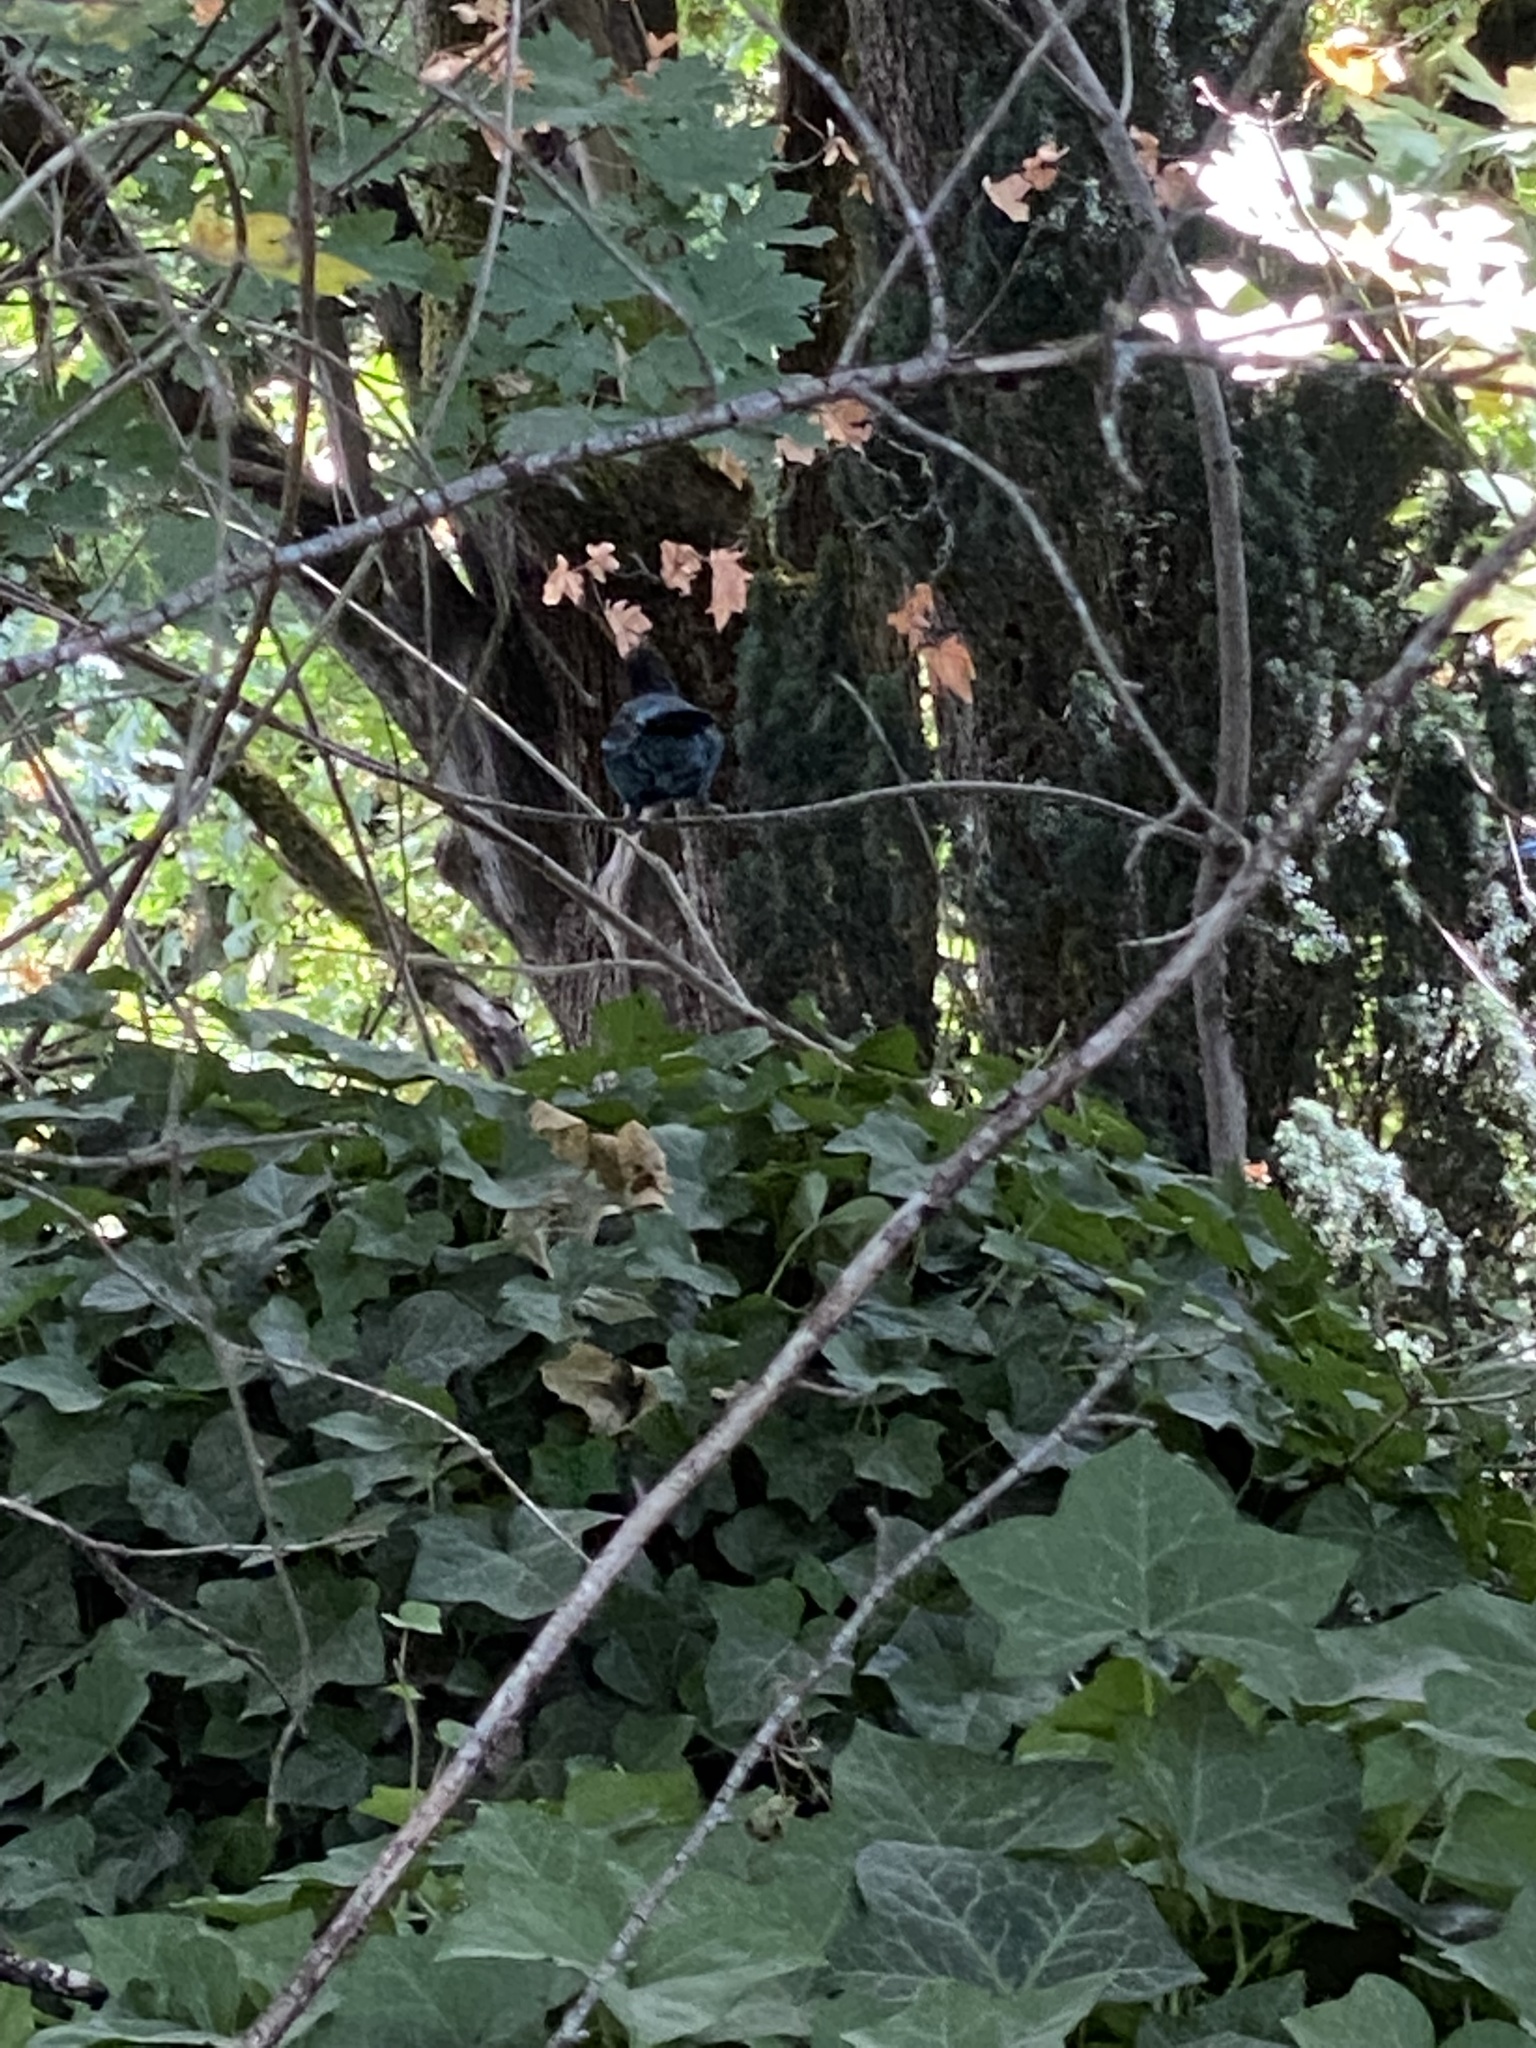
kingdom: Animalia
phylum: Chordata
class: Aves
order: Passeriformes
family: Corvidae
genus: Cyanocitta
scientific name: Cyanocitta stelleri
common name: Steller's jay
